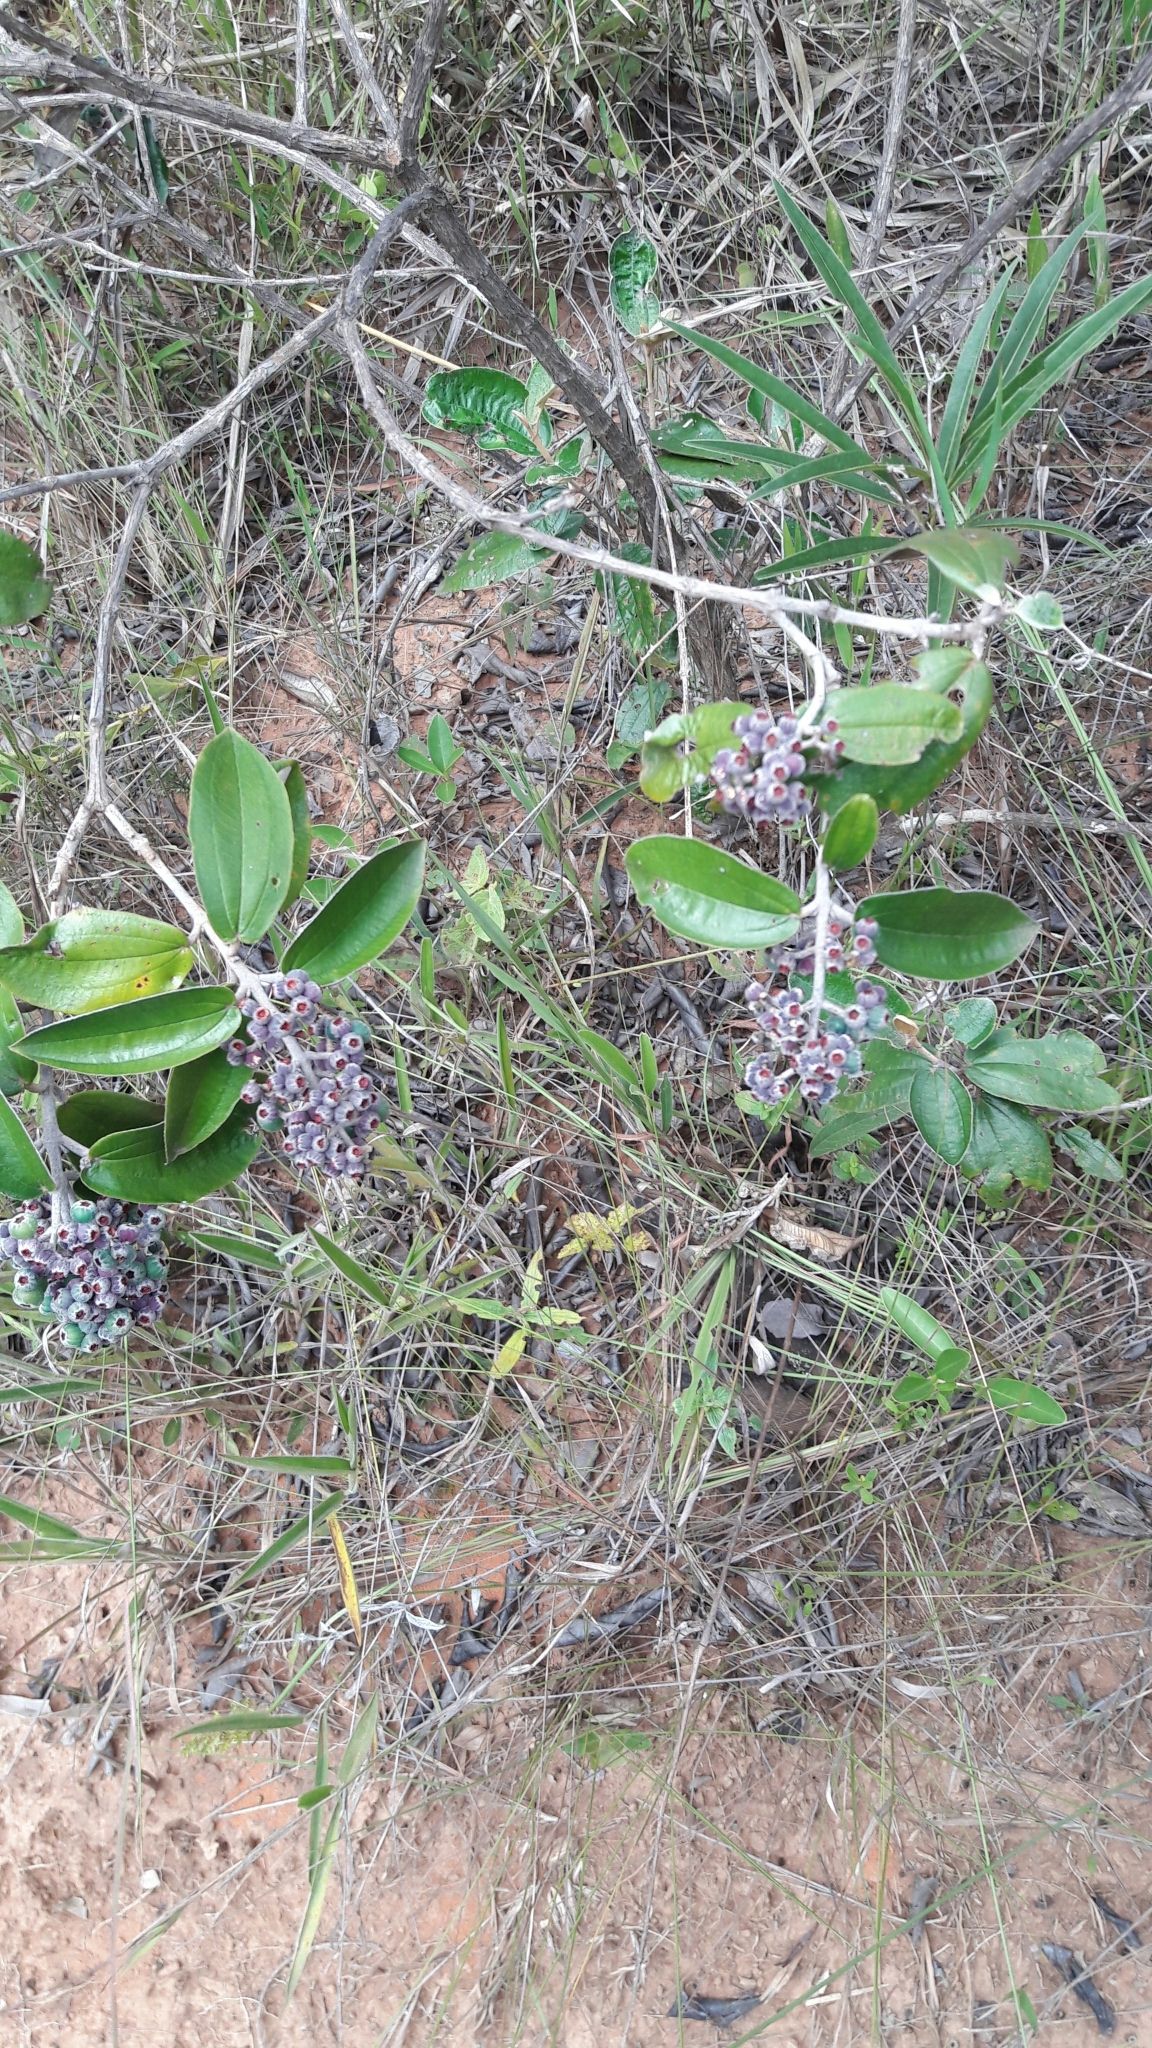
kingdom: Plantae
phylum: Tracheophyta
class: Magnoliopsida
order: Myrtales
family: Melastomataceae
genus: Miconia
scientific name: Miconia albicans
